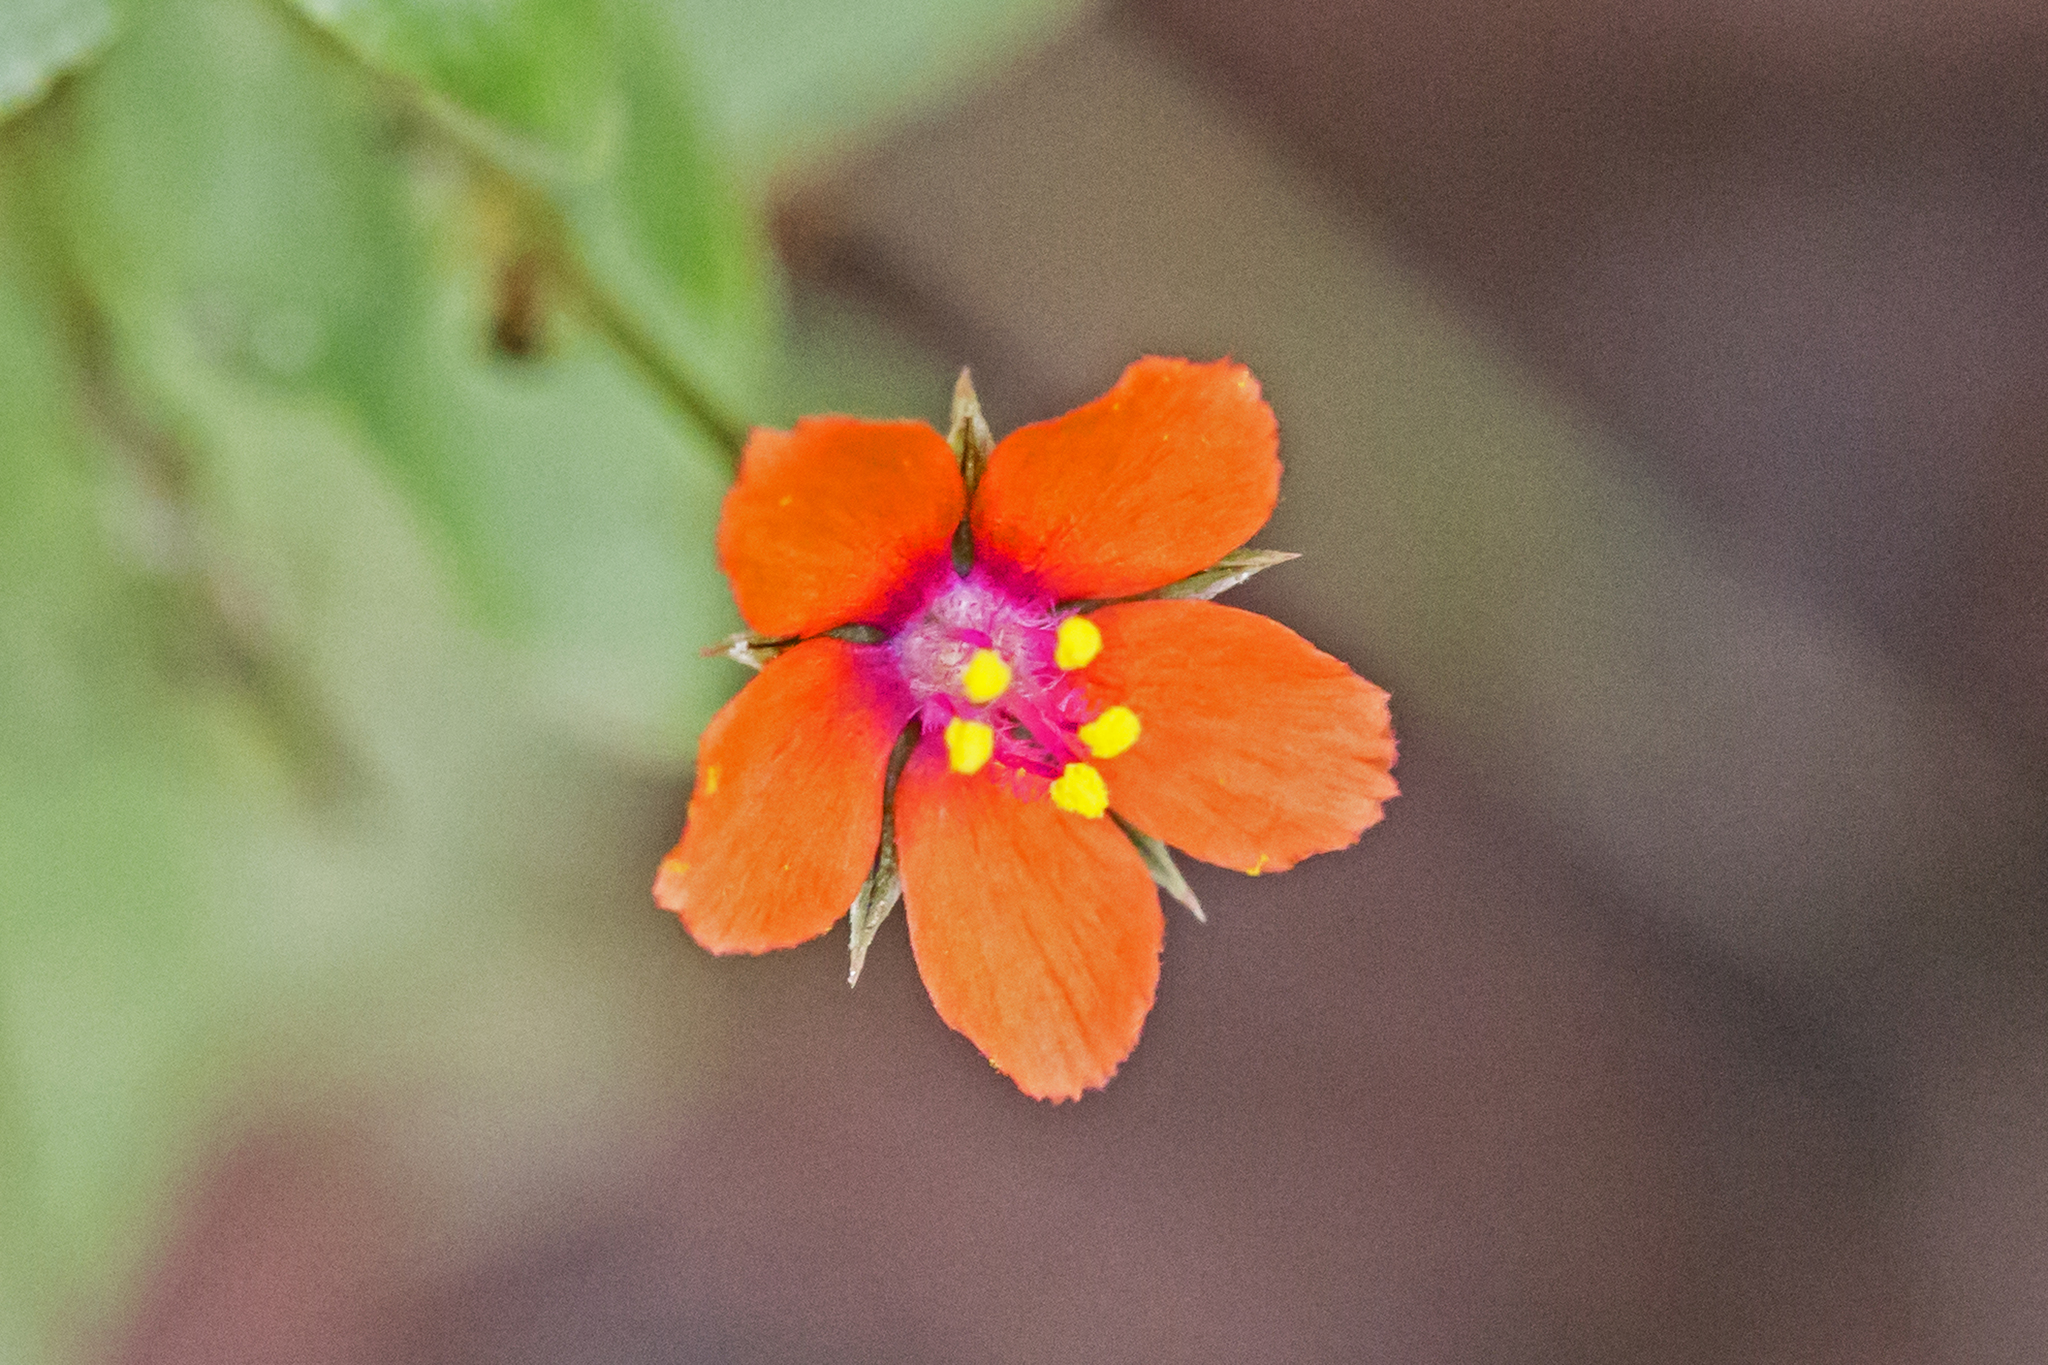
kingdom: Plantae
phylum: Tracheophyta
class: Magnoliopsida
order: Ericales
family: Primulaceae
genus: Lysimachia
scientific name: Lysimachia arvensis
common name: Scarlet pimpernel
